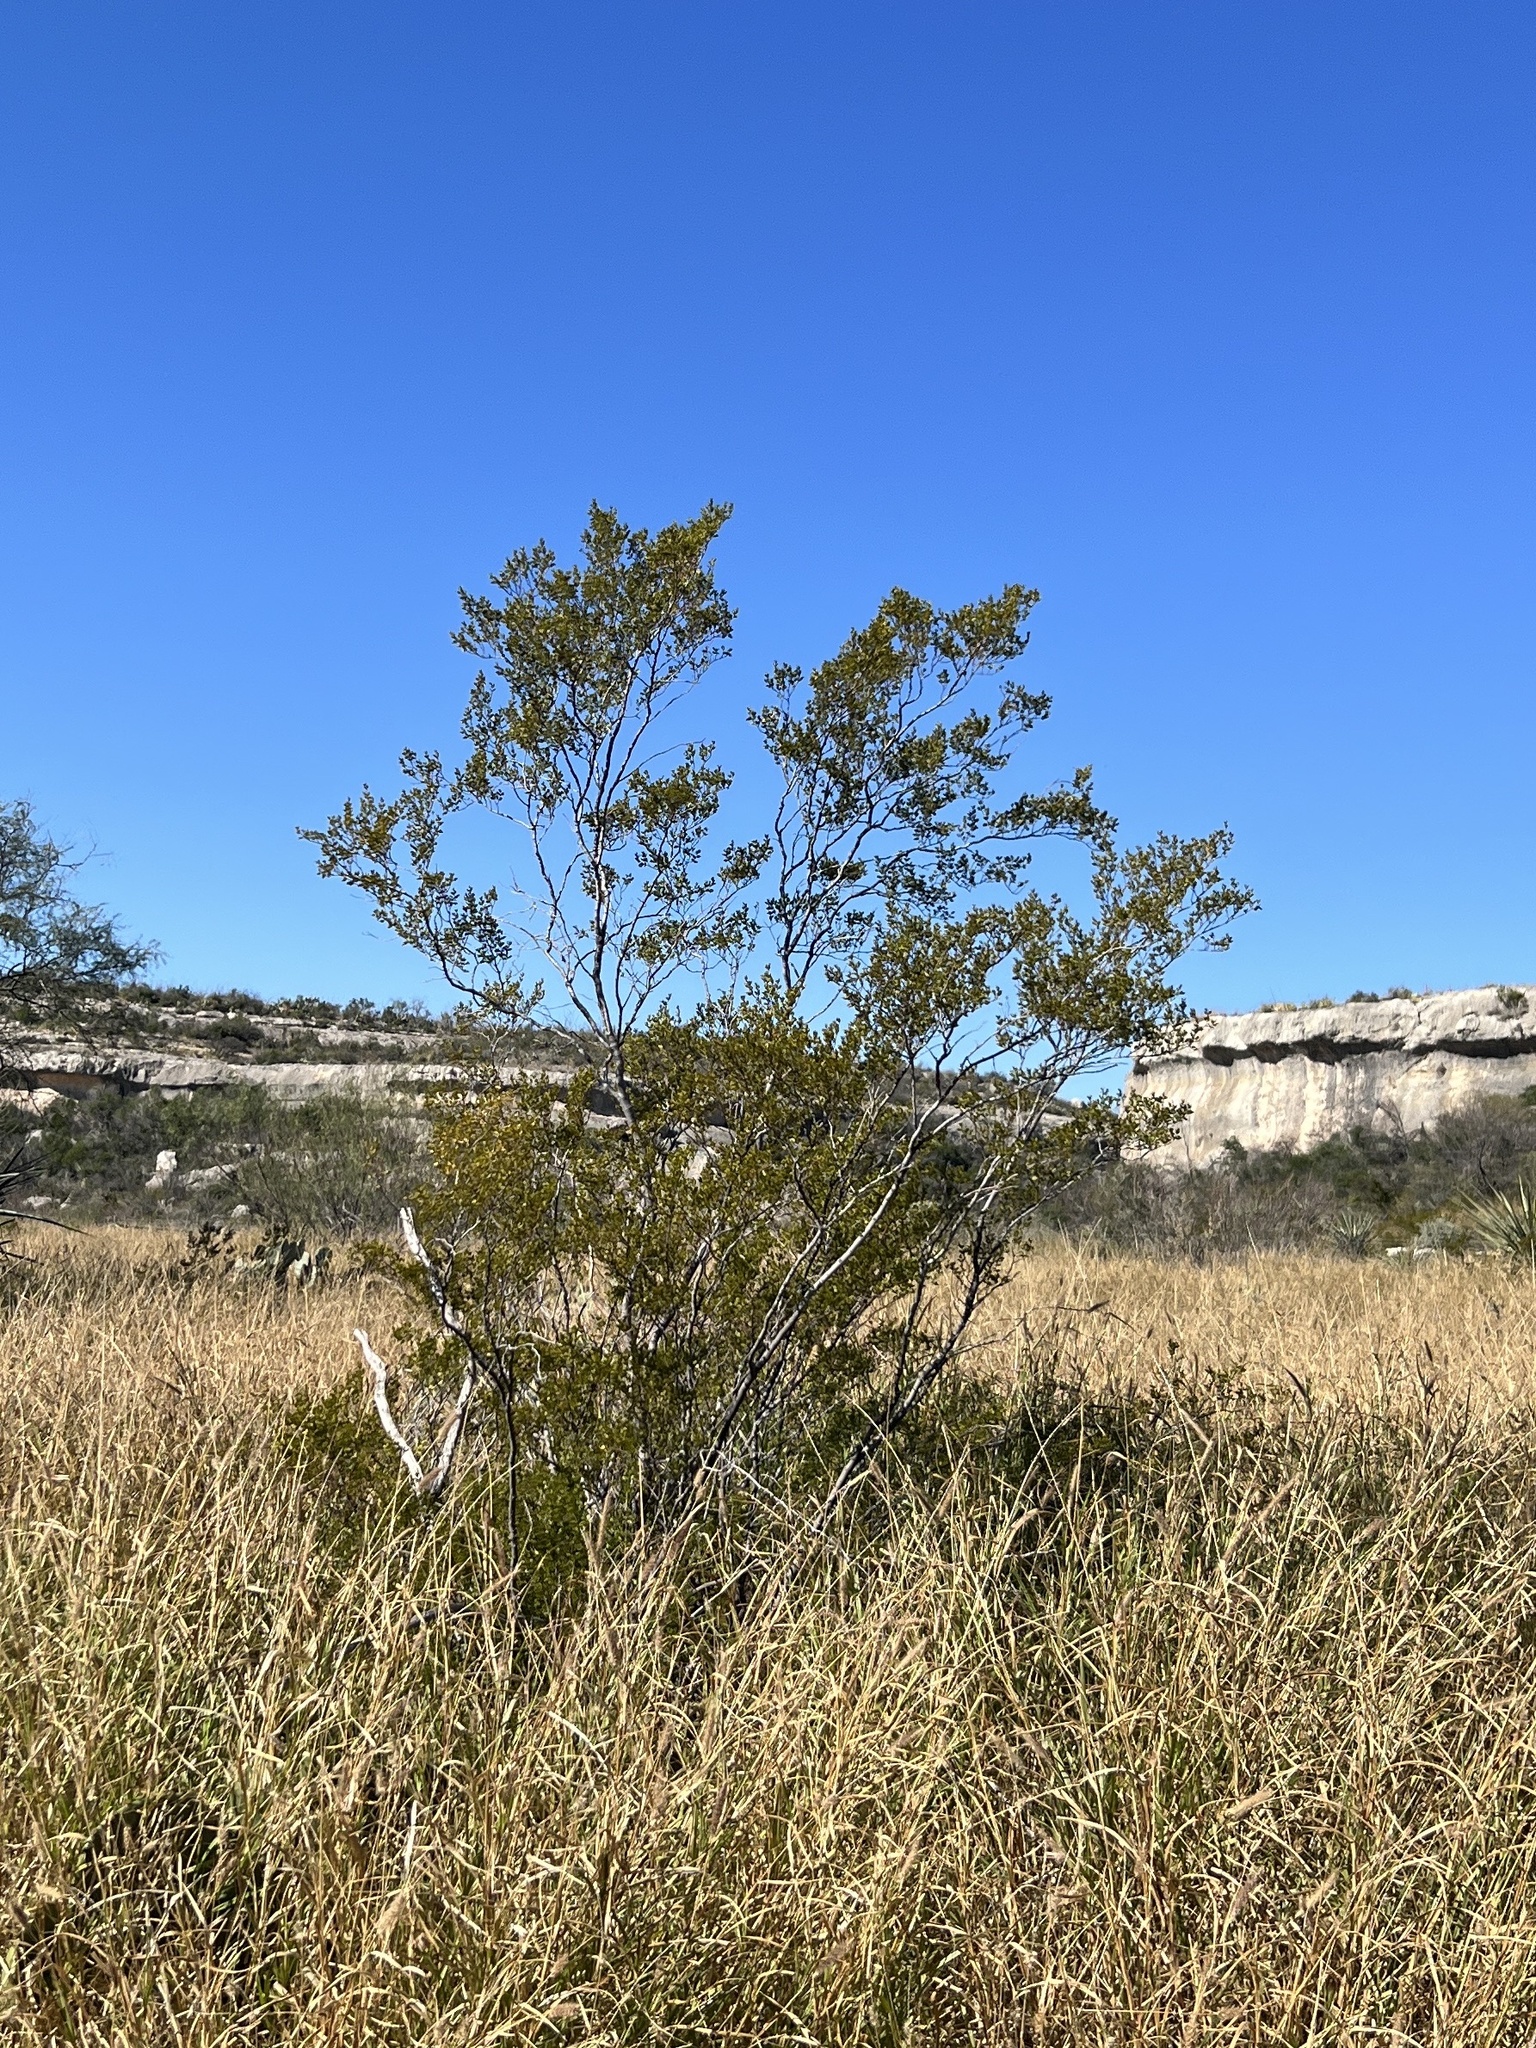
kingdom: Plantae
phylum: Tracheophyta
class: Magnoliopsida
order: Zygophyllales
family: Zygophyllaceae
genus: Larrea
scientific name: Larrea tridentata
